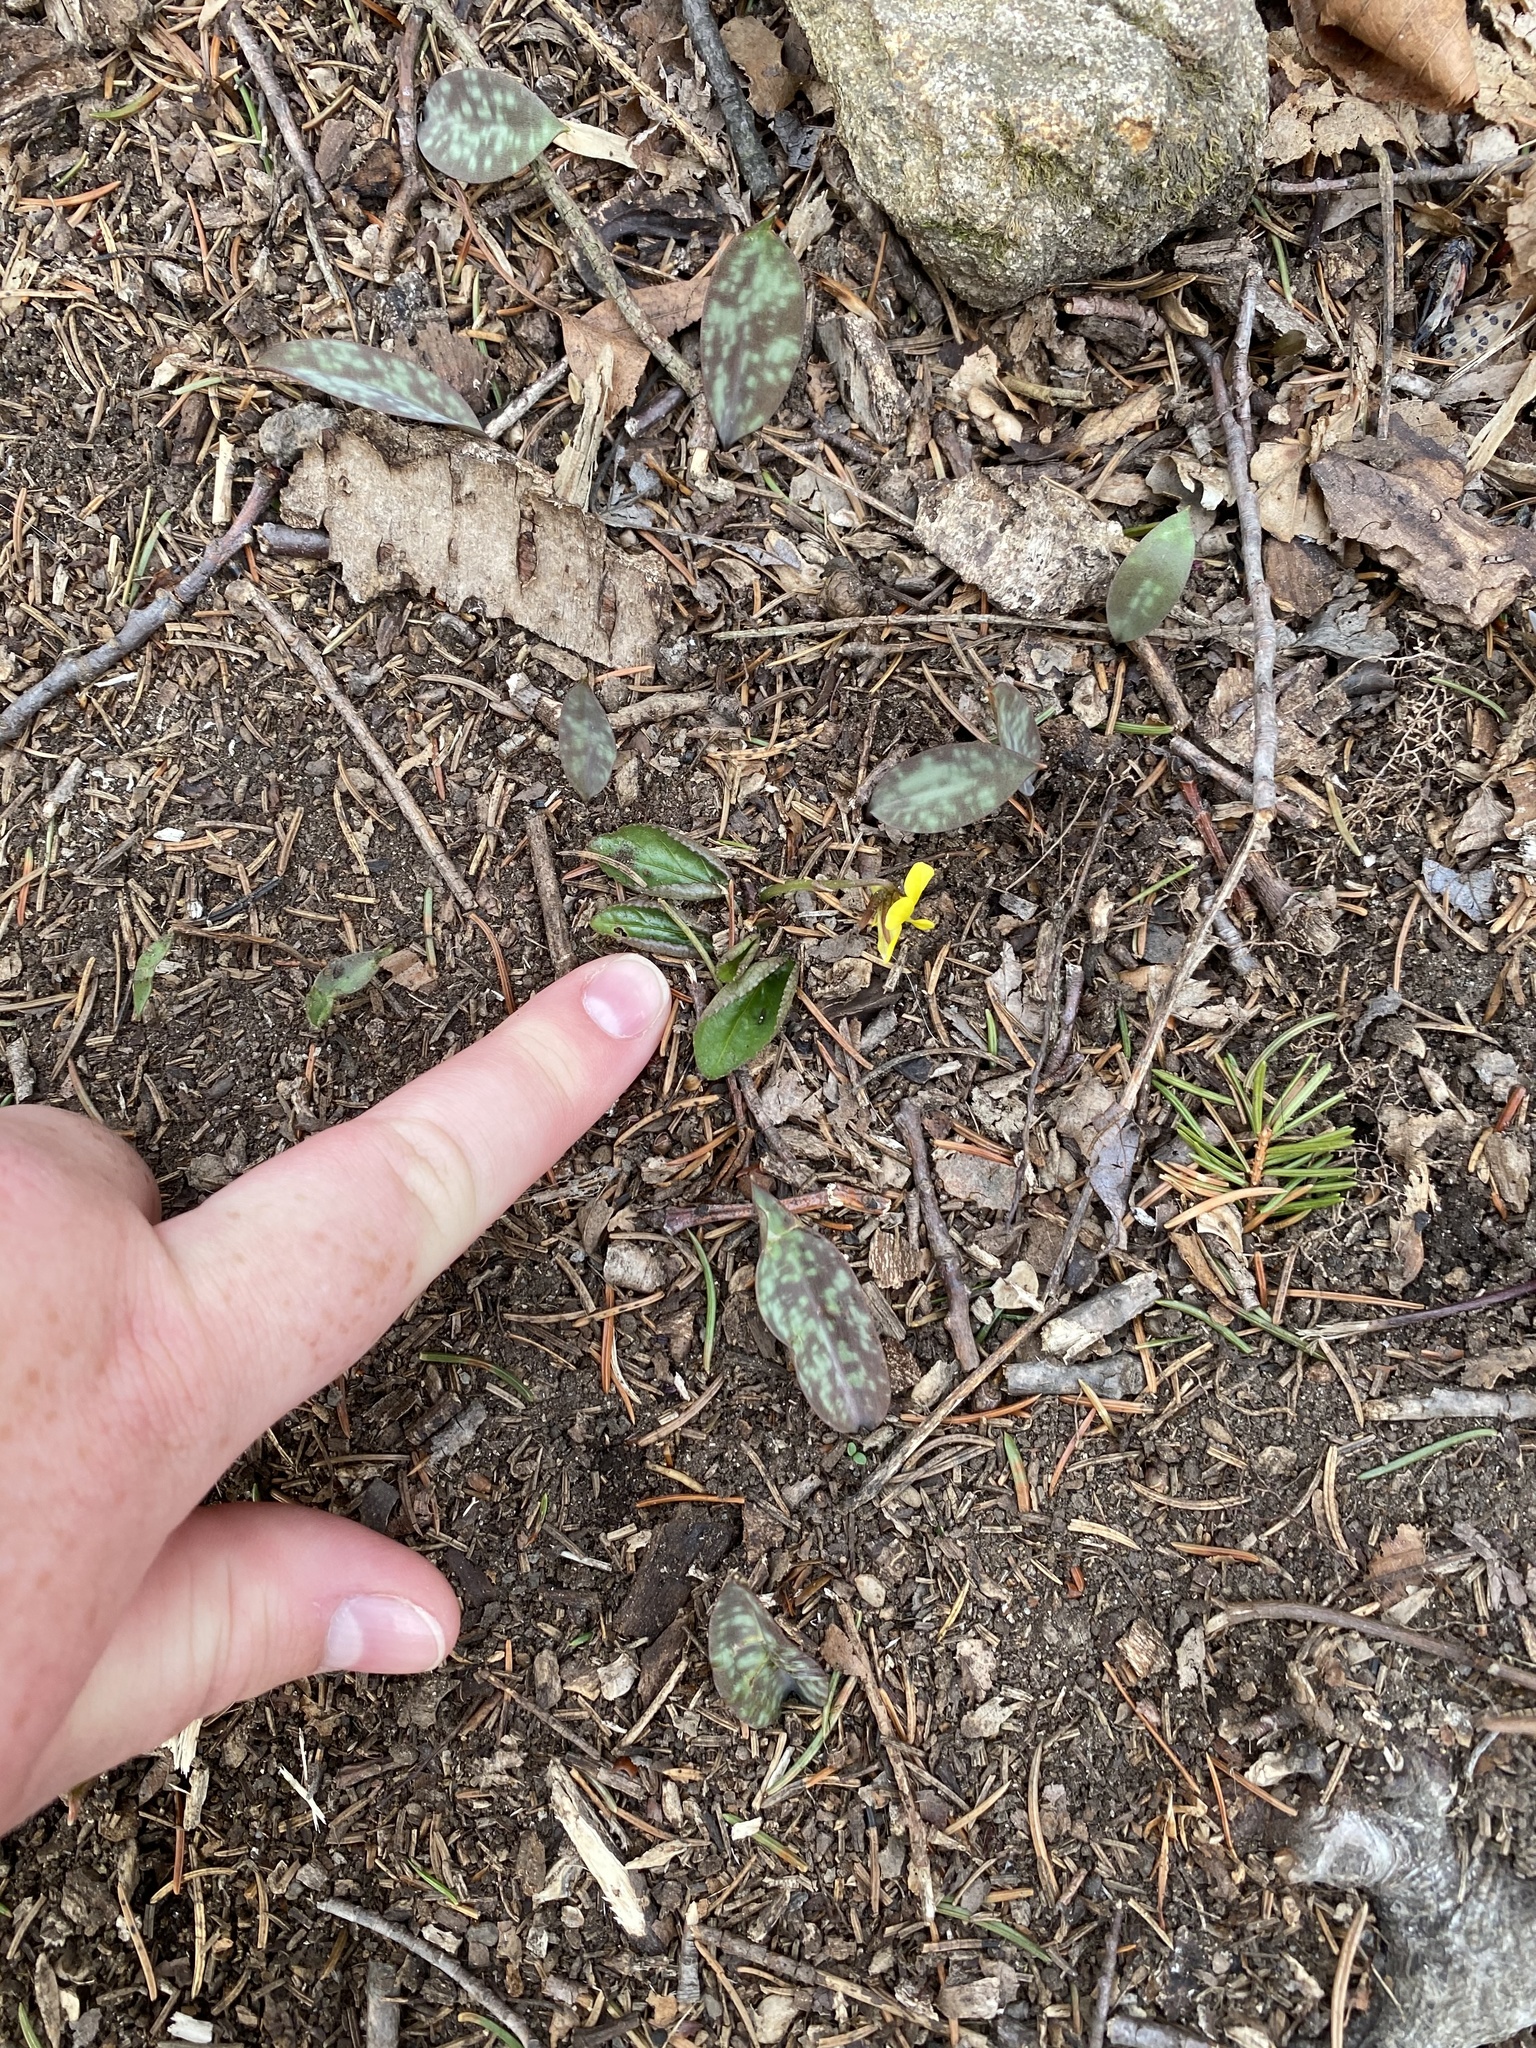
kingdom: Plantae
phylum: Tracheophyta
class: Magnoliopsida
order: Malpighiales
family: Violaceae
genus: Viola
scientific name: Viola rotundifolia
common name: Early yellow violet
